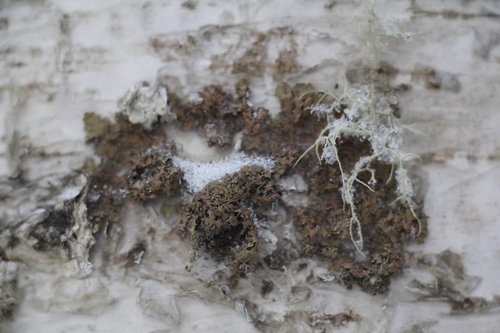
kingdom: Fungi
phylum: Ascomycota
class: Lecanoromycetes
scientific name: Lecanoromycetes
